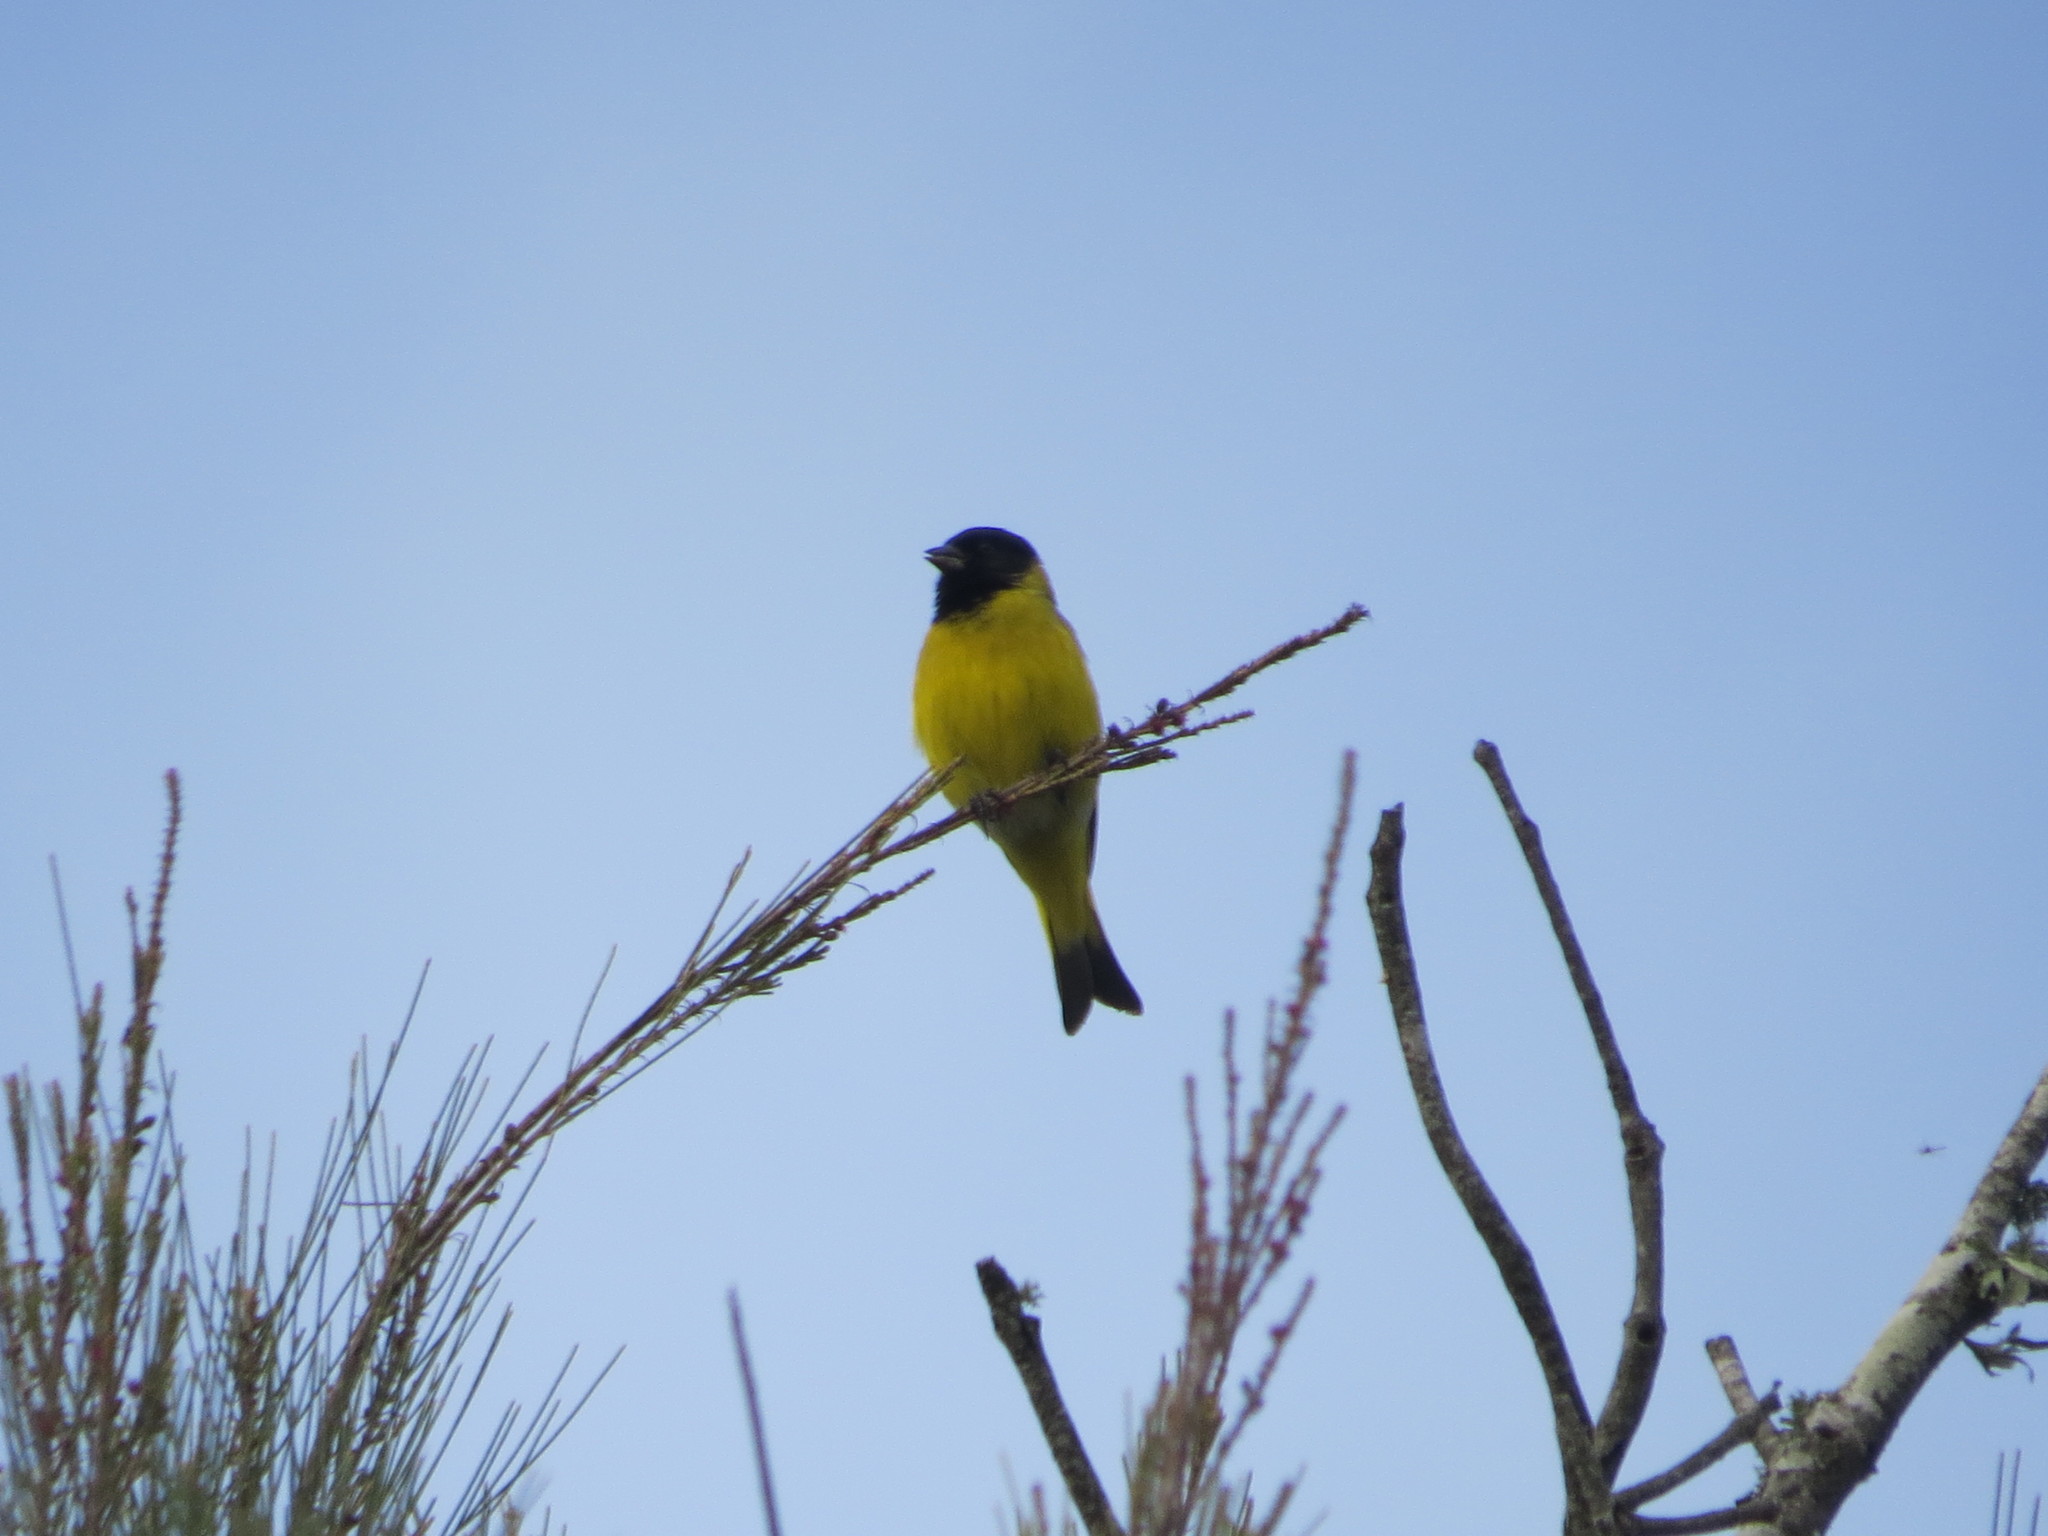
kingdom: Animalia
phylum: Chordata
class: Aves
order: Passeriformes
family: Fringillidae
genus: Spinus
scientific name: Spinus magellanicus
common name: Hooded siskin
